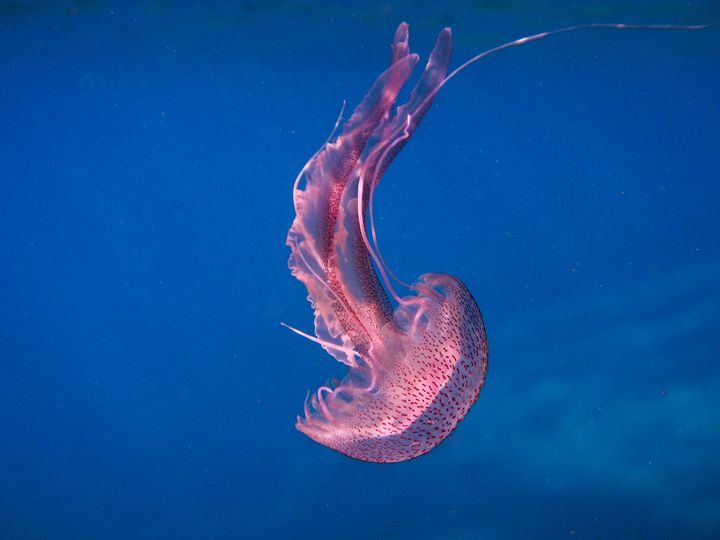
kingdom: Animalia
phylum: Cnidaria
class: Scyphozoa
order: Semaeostomeae
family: Pelagiidae
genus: Pelagia
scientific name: Pelagia noctiluca
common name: Mauve stinger
